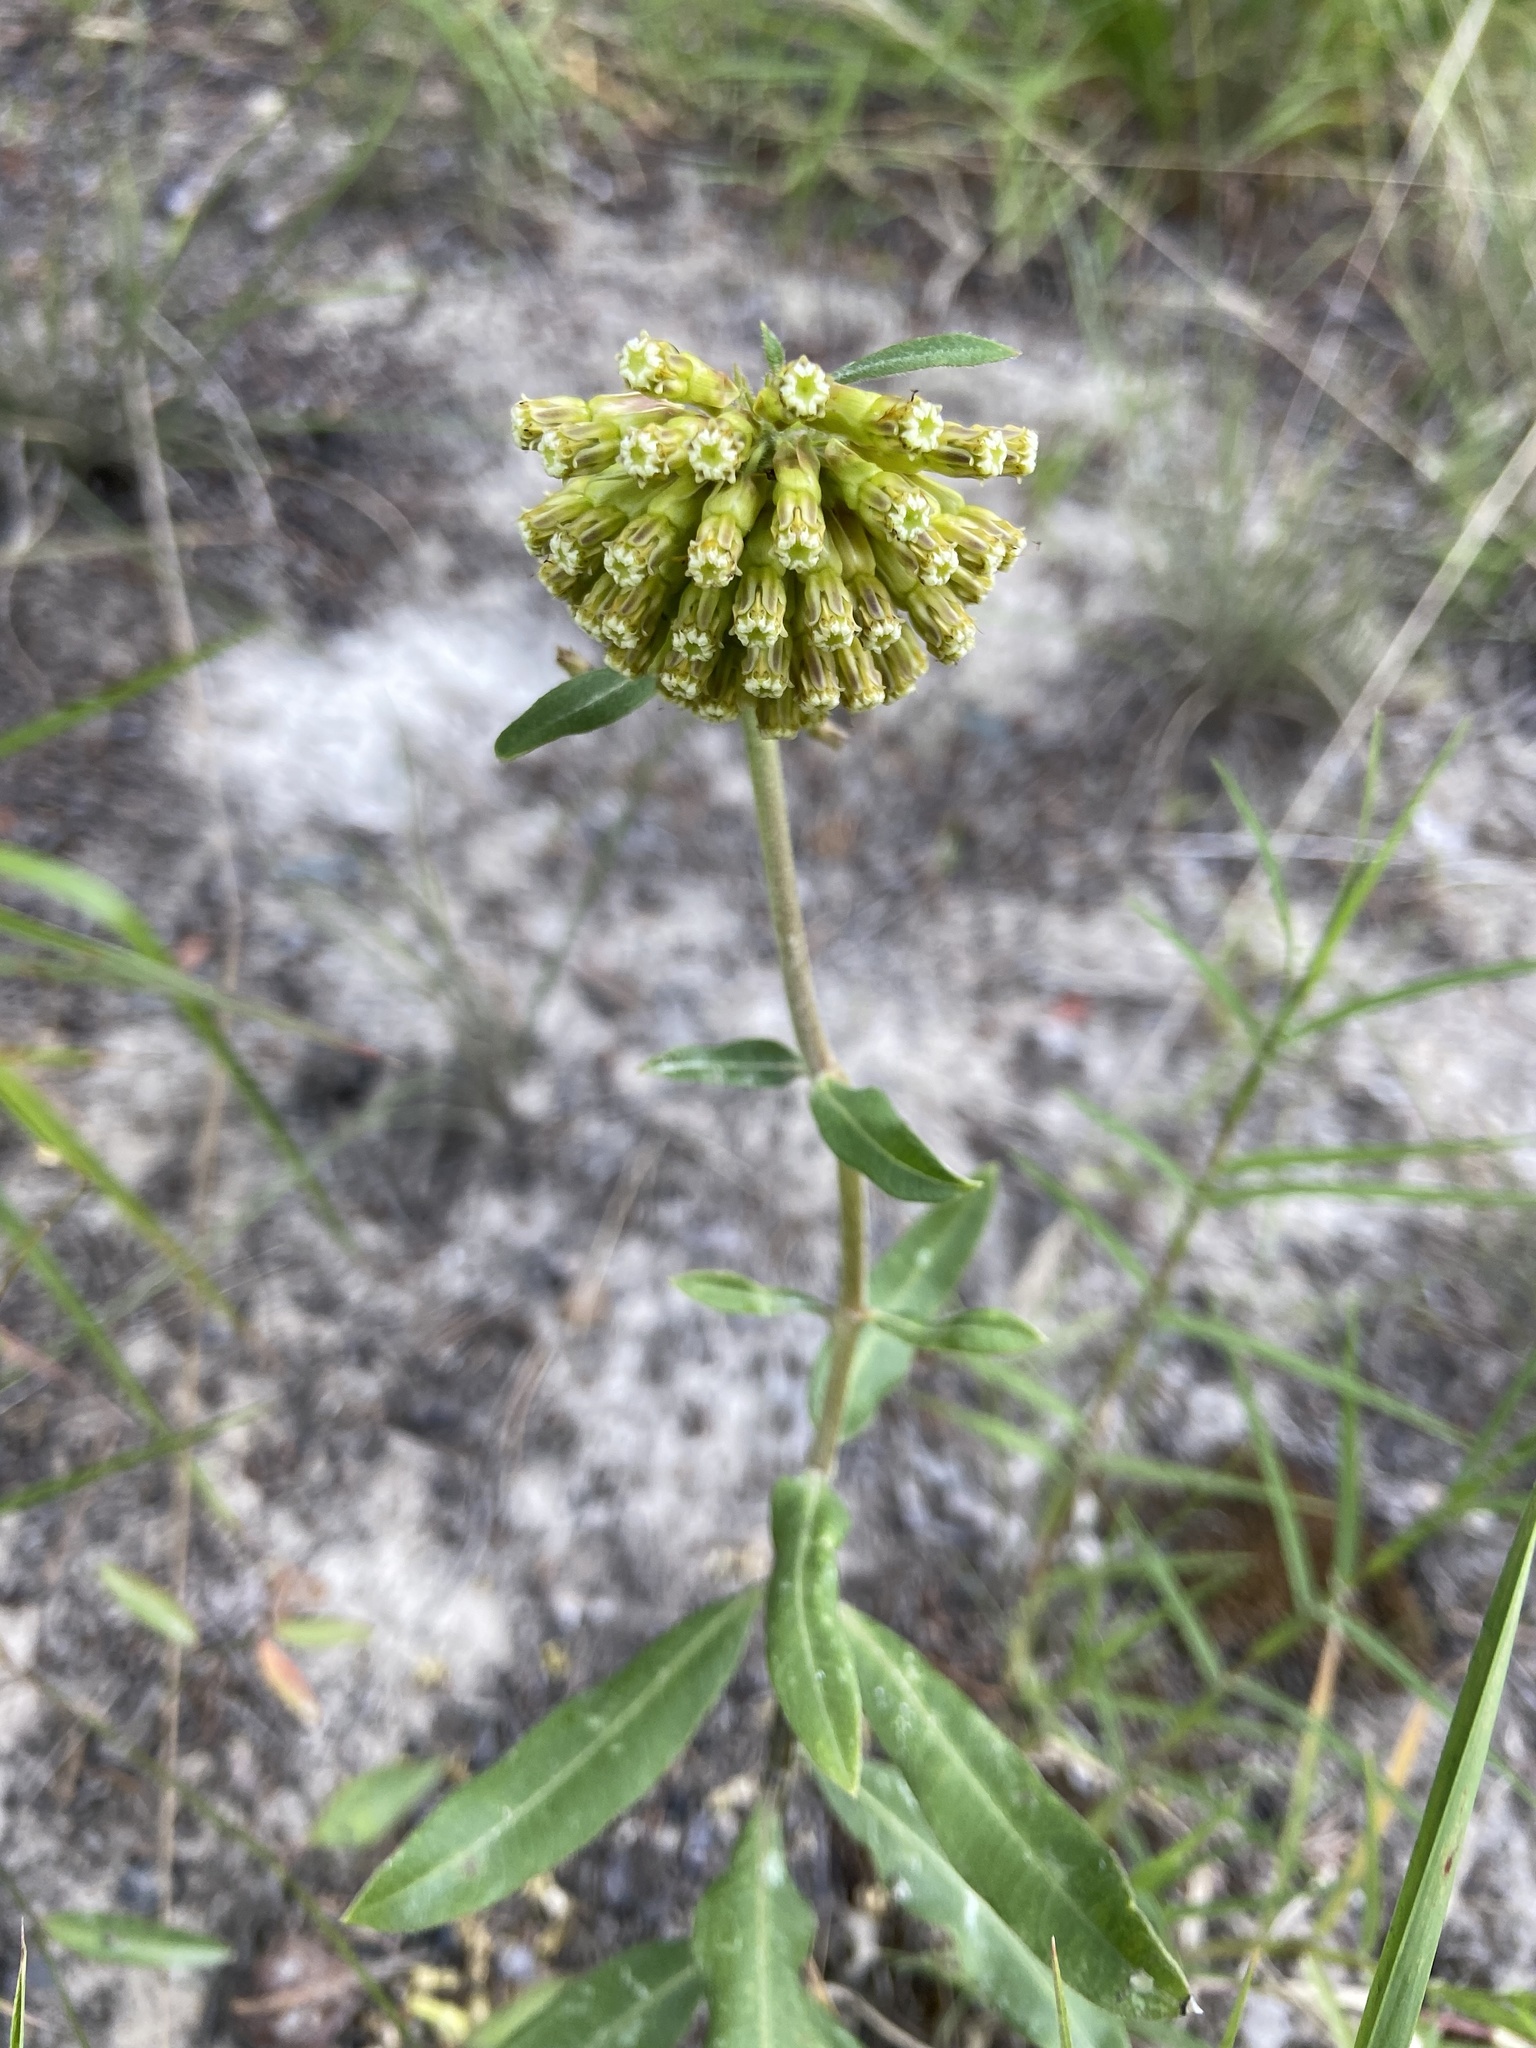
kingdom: Plantae
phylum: Tracheophyta
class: Magnoliopsida
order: Gentianales
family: Apocynaceae
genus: Asclepias
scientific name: Asclepias viridiflora
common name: Green comet milkweed
